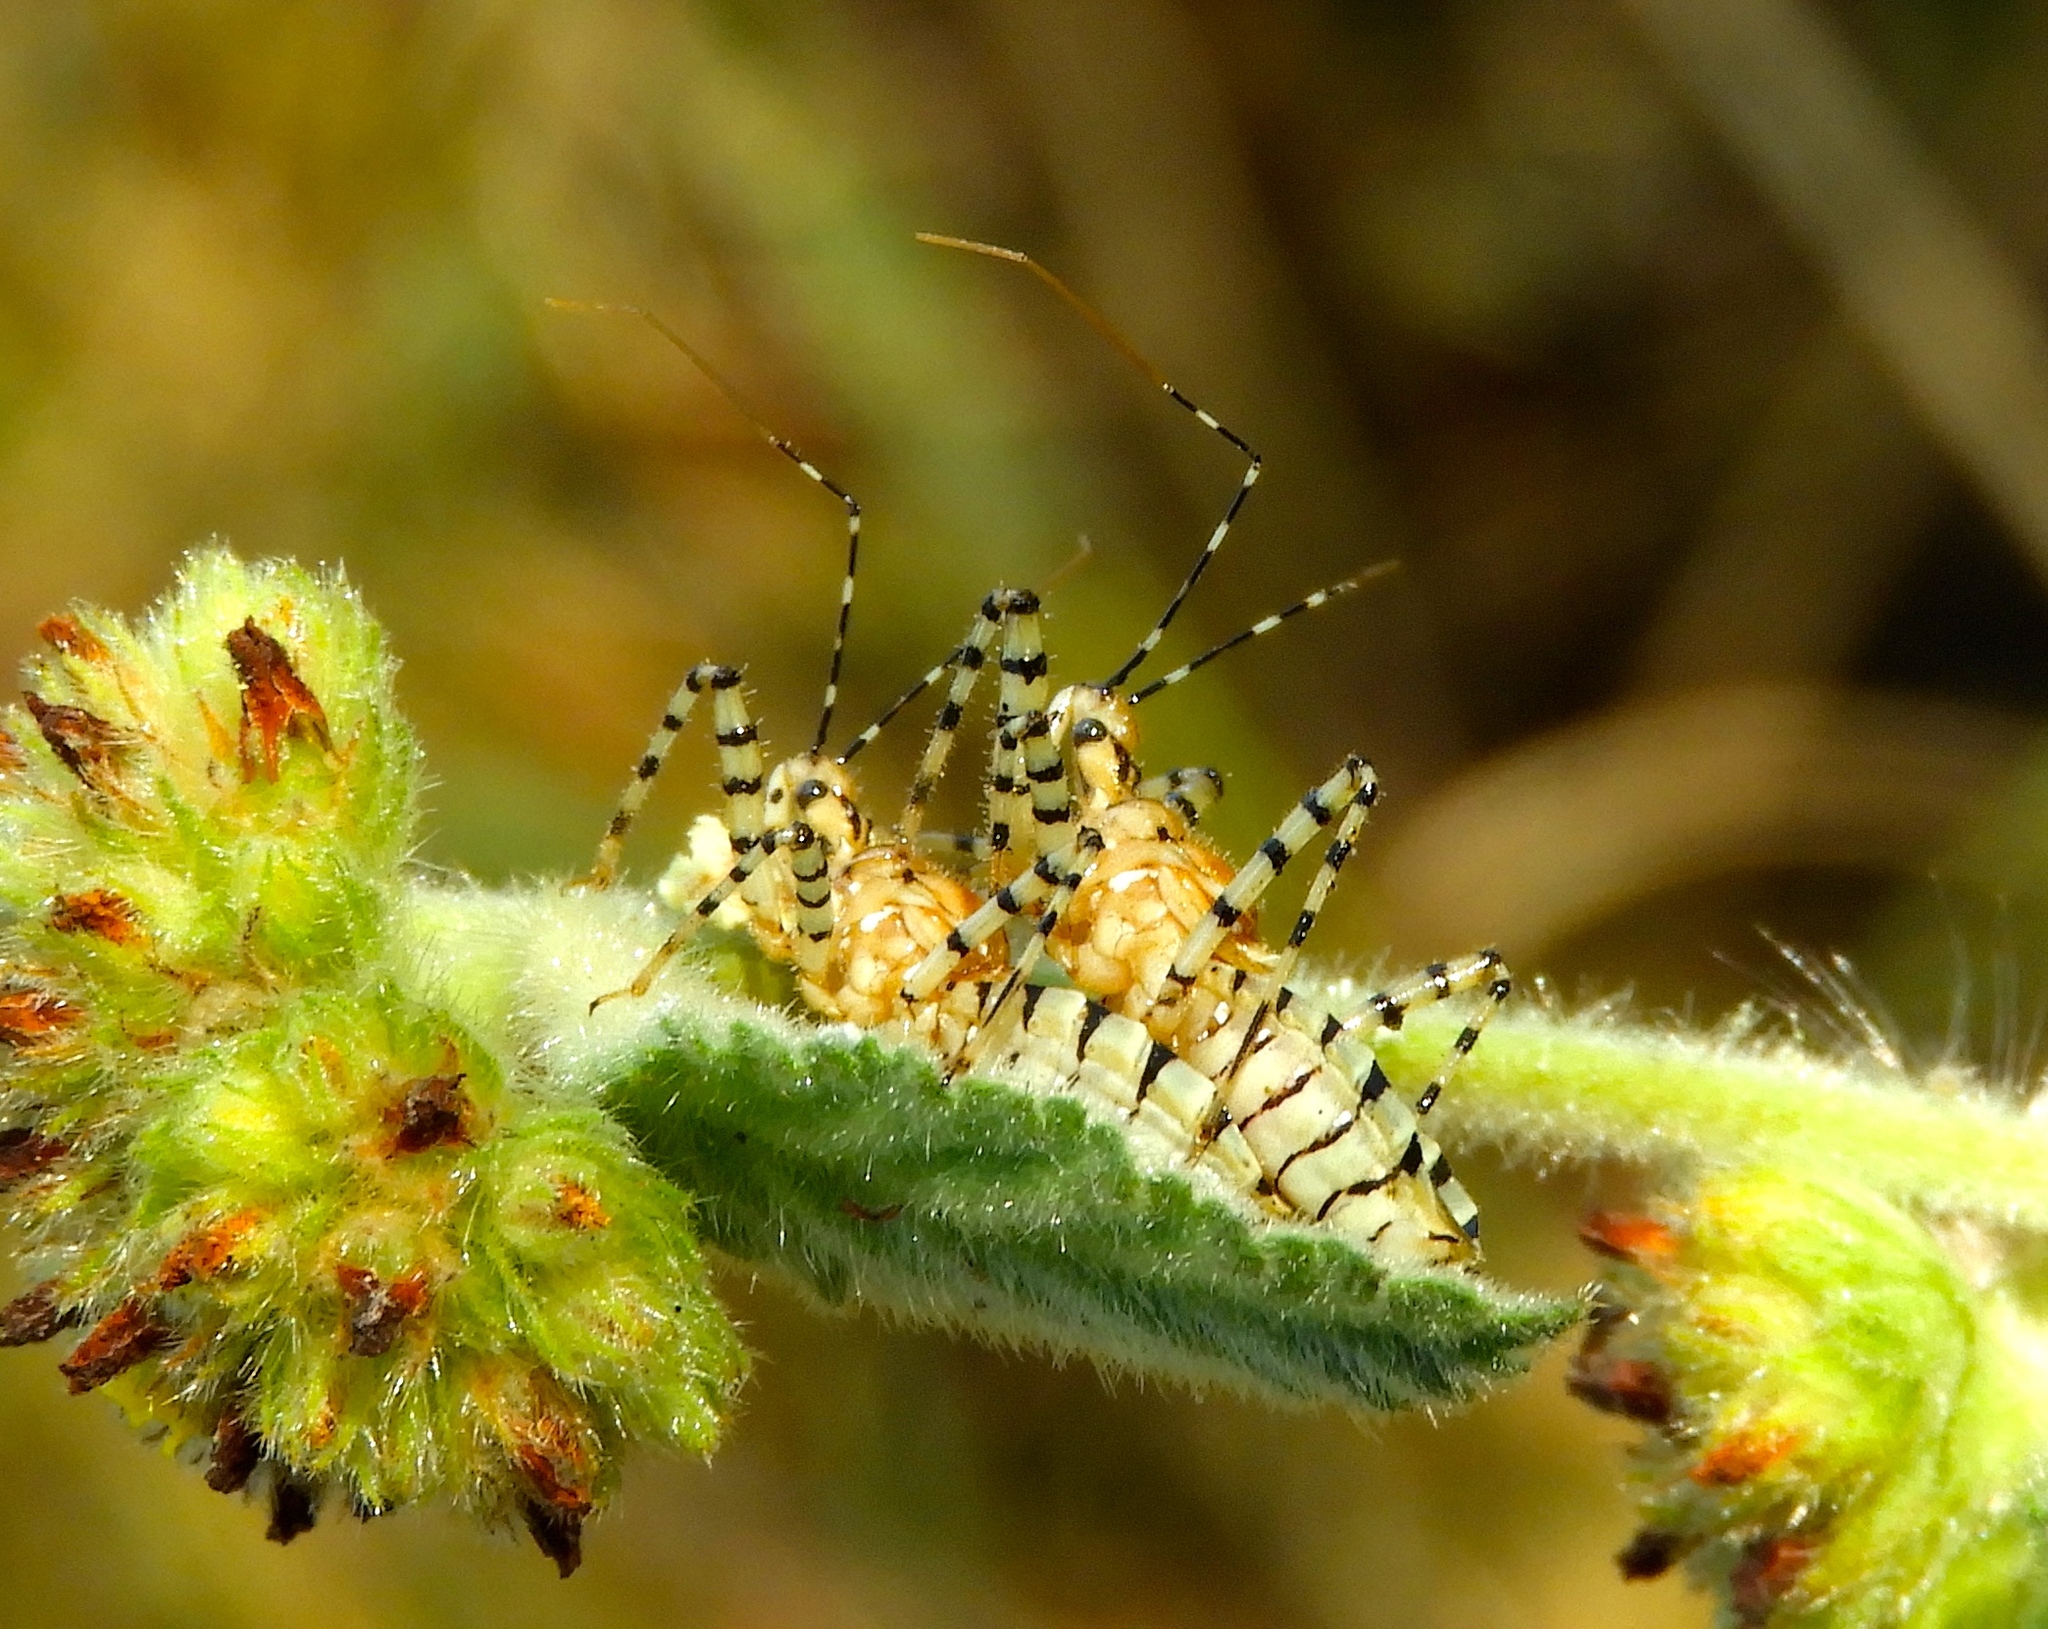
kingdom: Animalia
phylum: Arthropoda
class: Insecta
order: Hemiptera
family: Reduviidae
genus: Pselliopus
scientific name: Pselliopus
